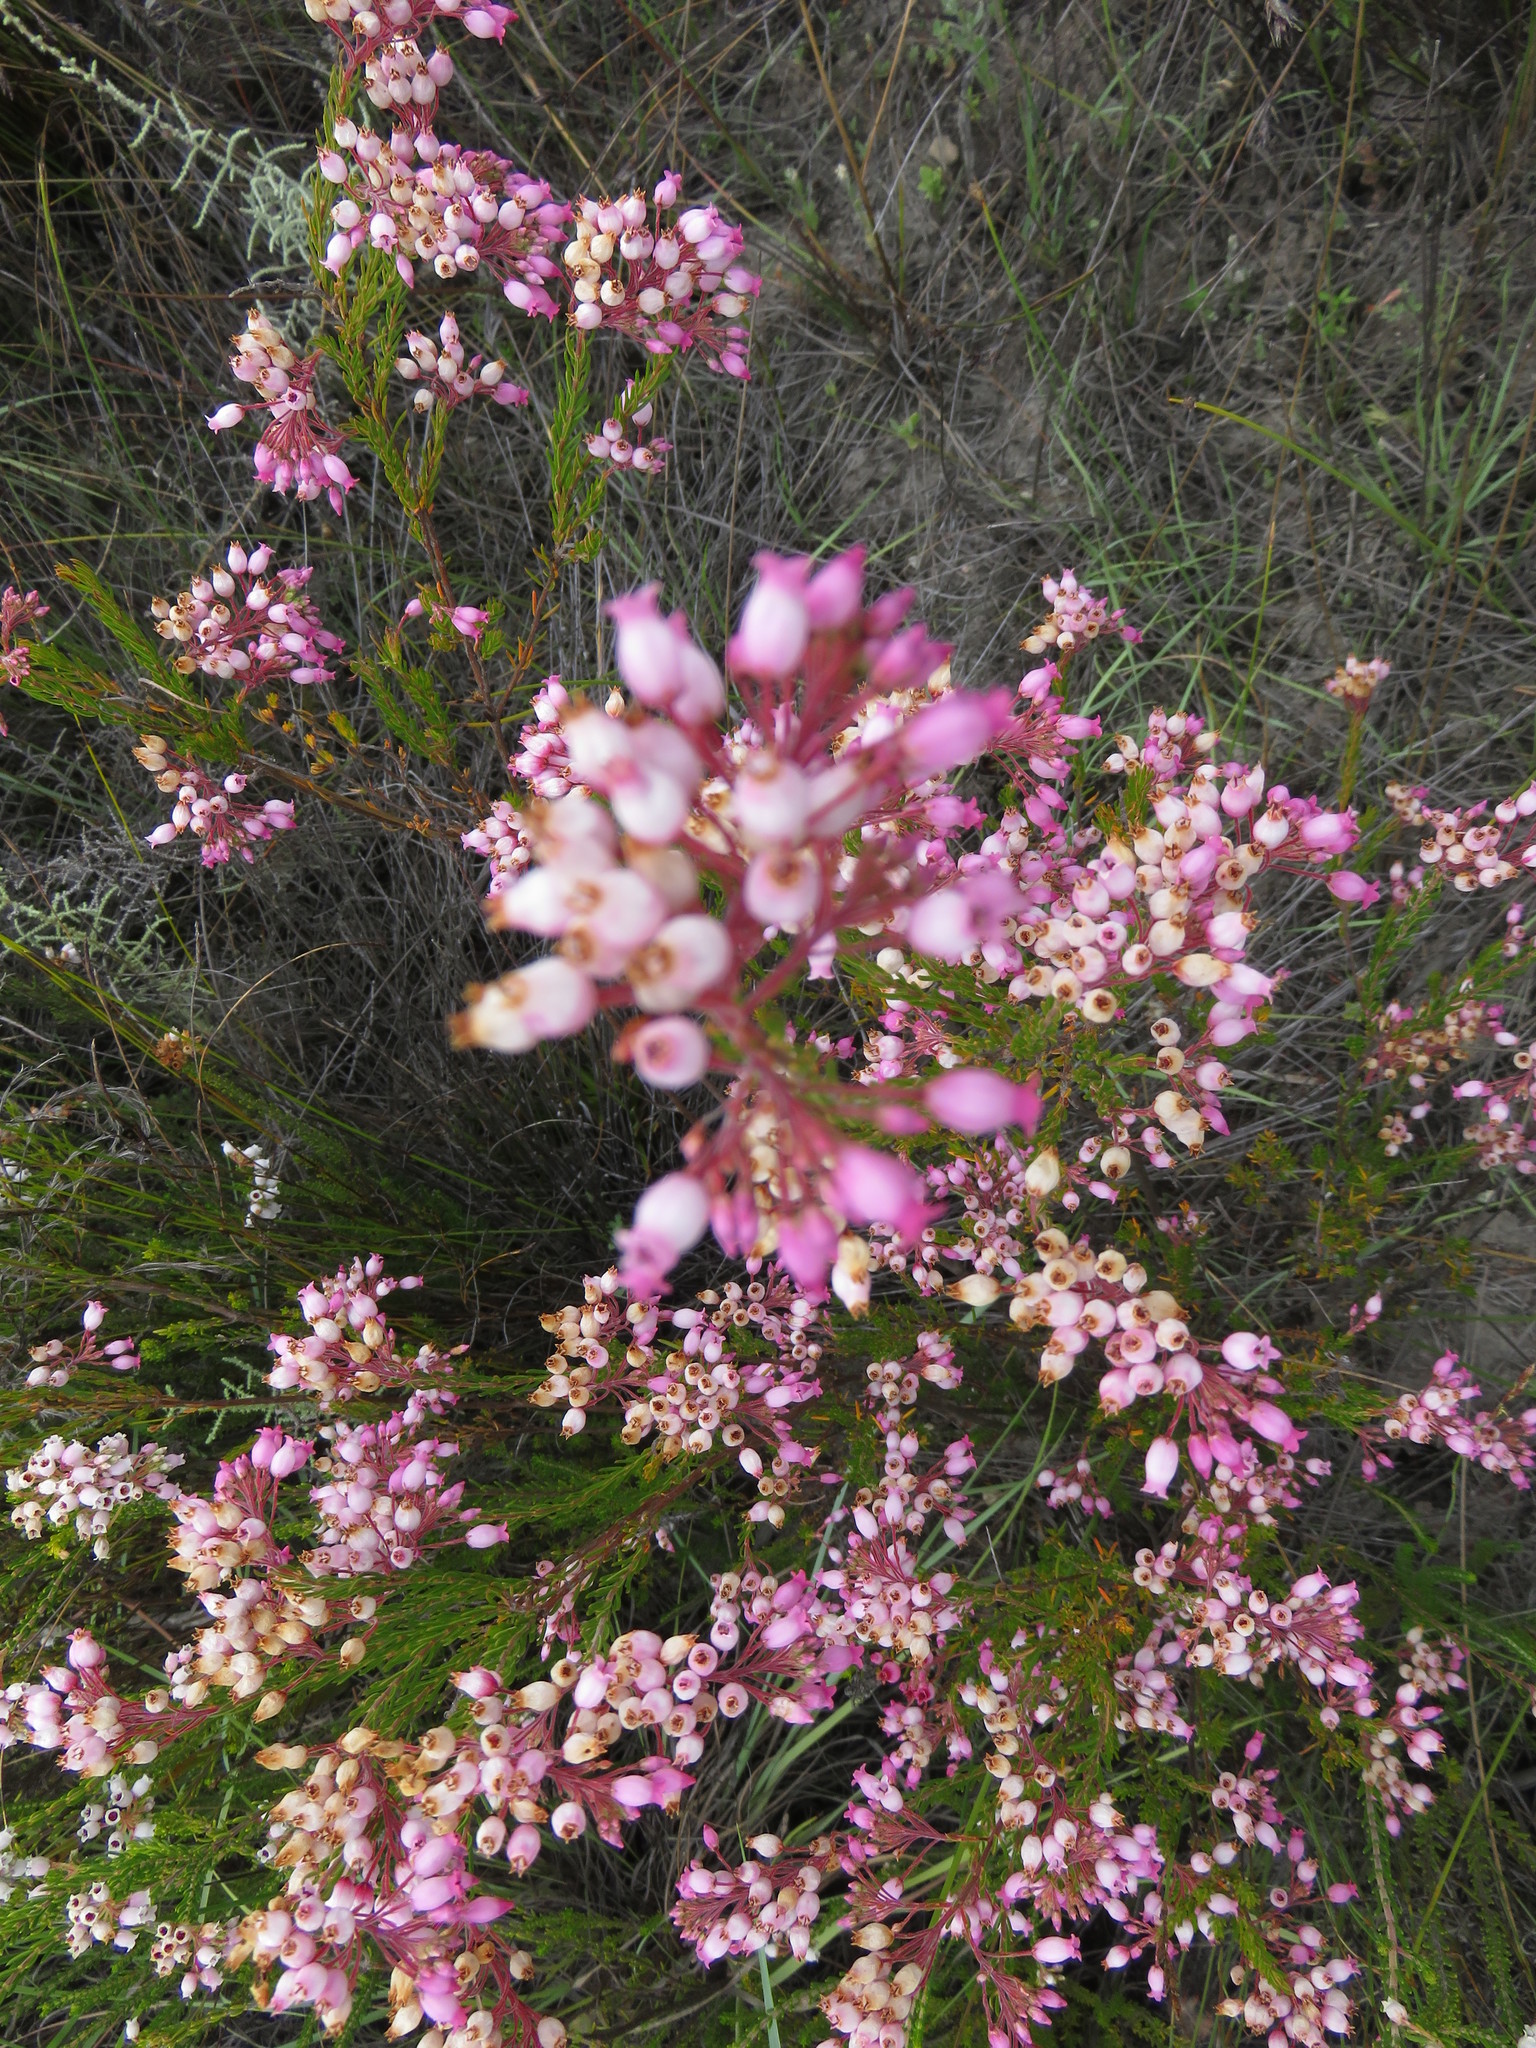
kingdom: Plantae
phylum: Tracheophyta
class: Magnoliopsida
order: Ericales
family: Ericaceae
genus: Erica
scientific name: Erica inflata
